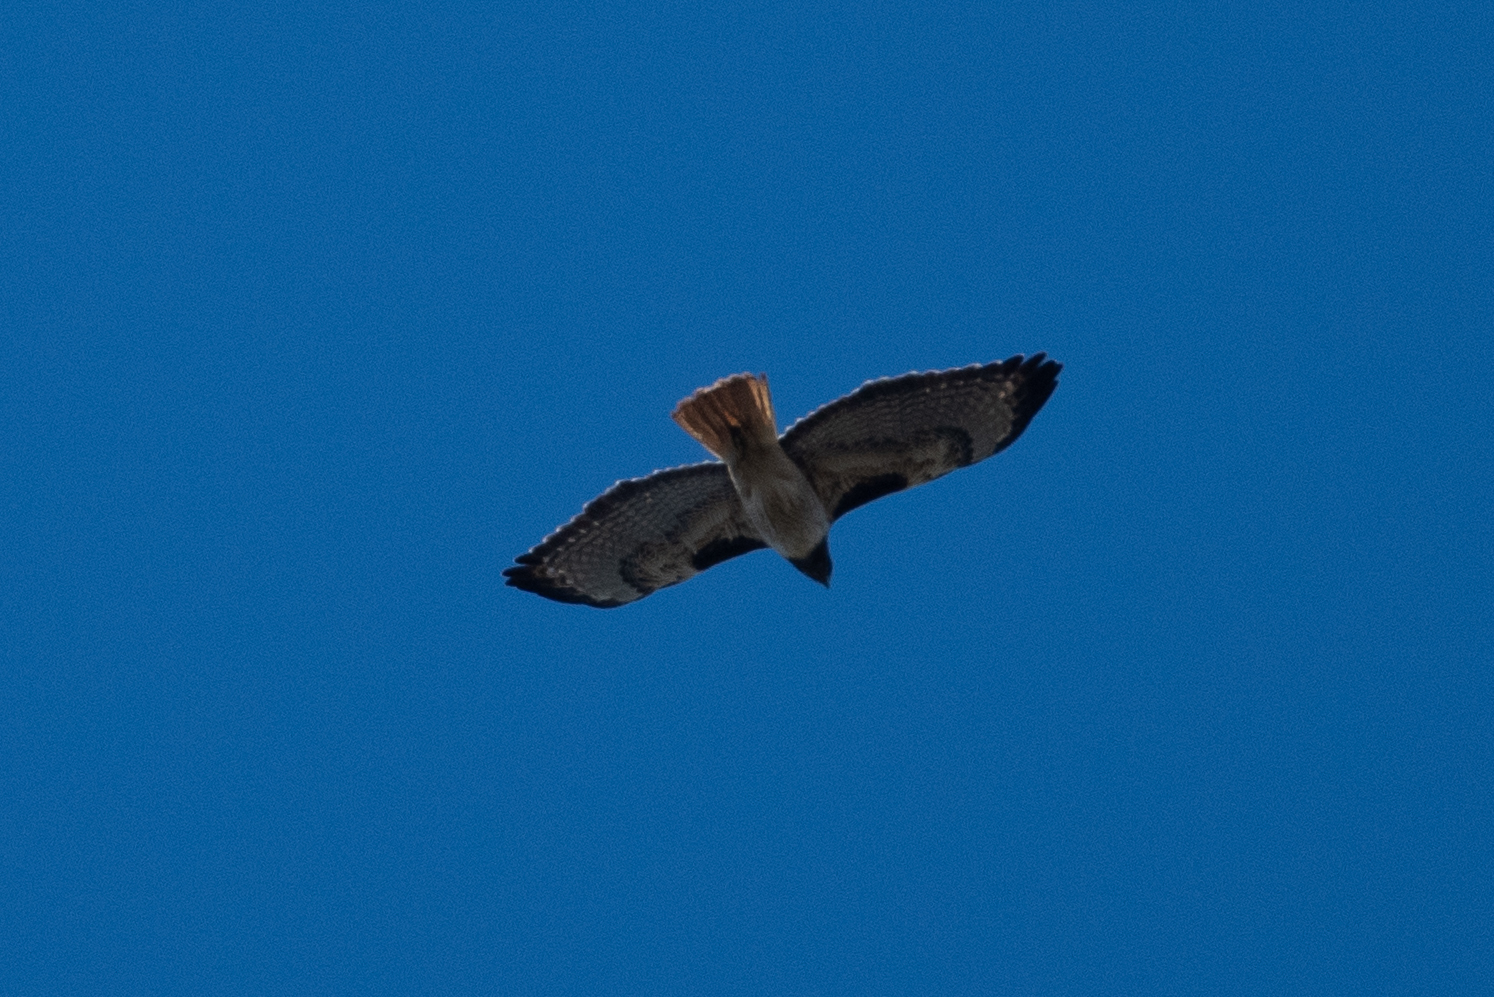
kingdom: Animalia
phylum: Chordata
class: Aves
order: Accipitriformes
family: Accipitridae
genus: Buteo
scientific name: Buteo jamaicensis
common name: Red-tailed hawk
